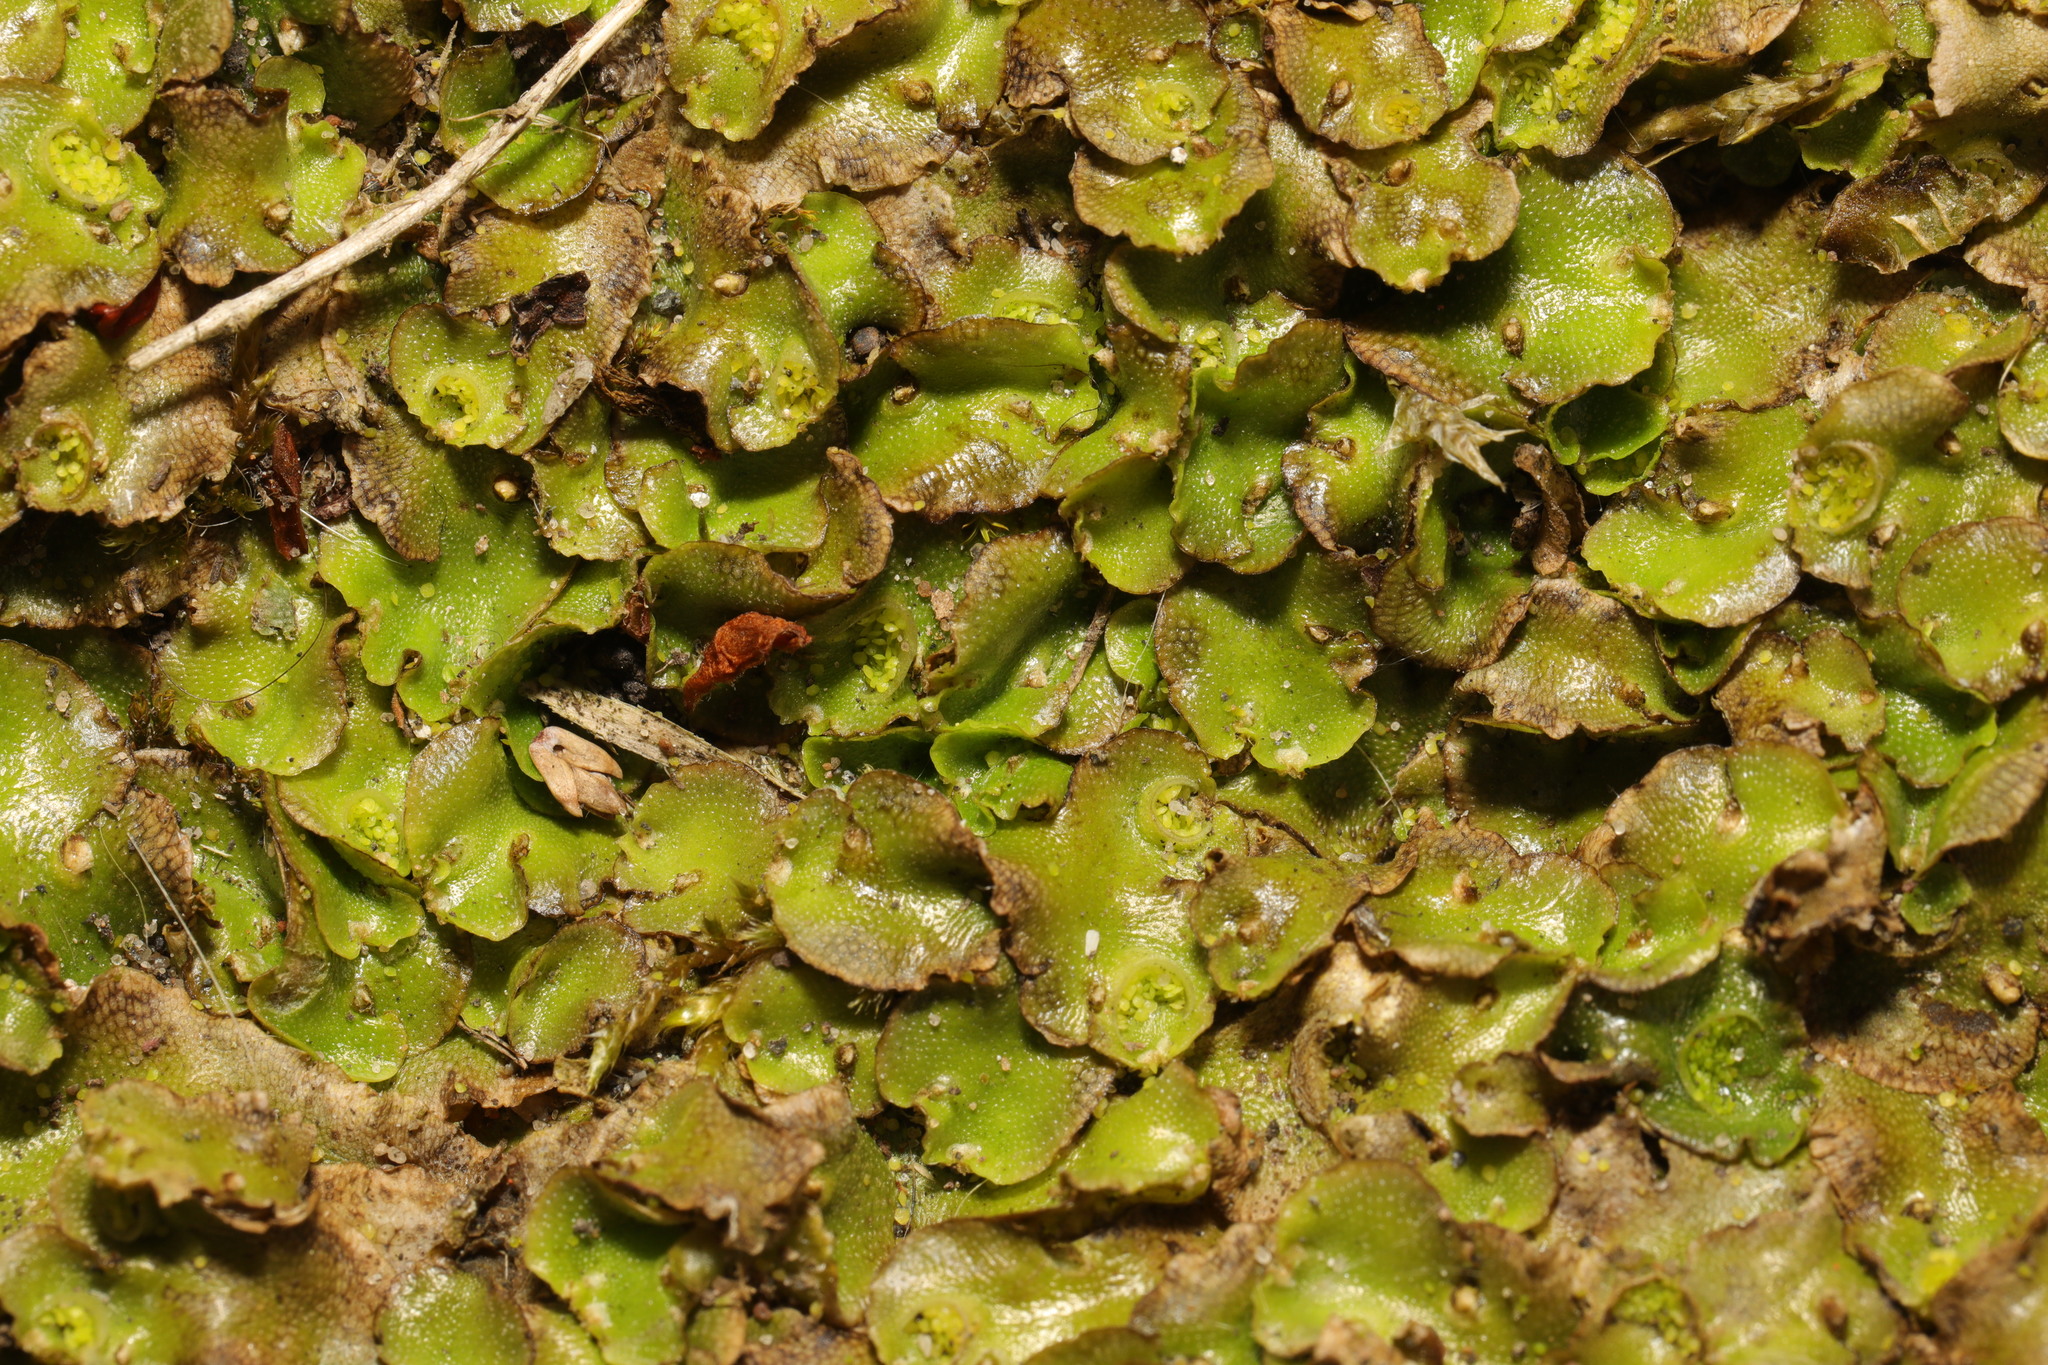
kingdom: Plantae
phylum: Marchantiophyta
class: Marchantiopsida
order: Lunulariales
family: Lunulariaceae
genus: Lunularia
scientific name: Lunularia cruciata
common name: Crescent-cup liverwort
